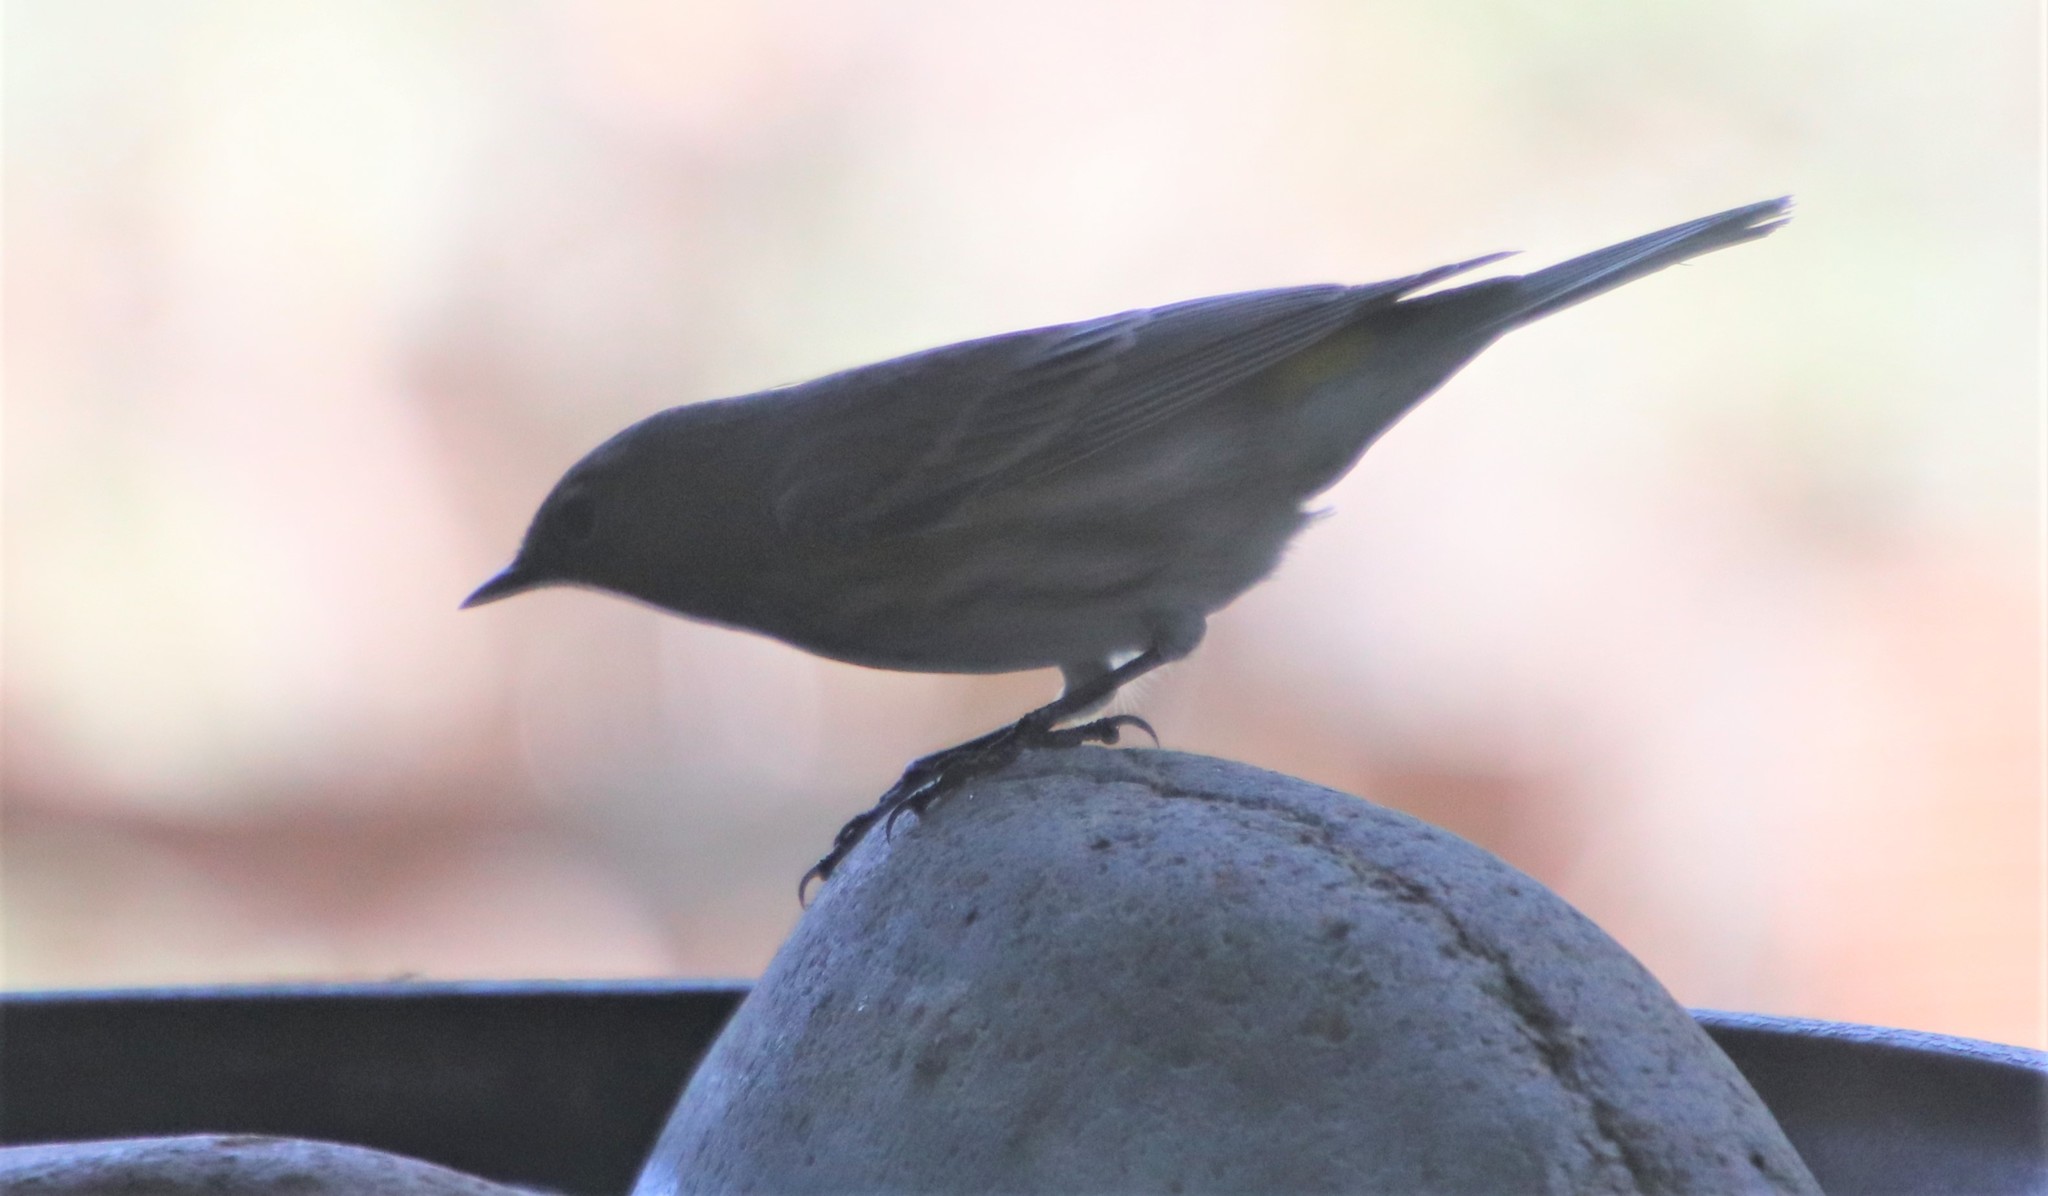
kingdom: Animalia
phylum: Chordata
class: Aves
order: Passeriformes
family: Parulidae
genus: Setophaga
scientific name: Setophaga coronata
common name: Myrtle warbler
